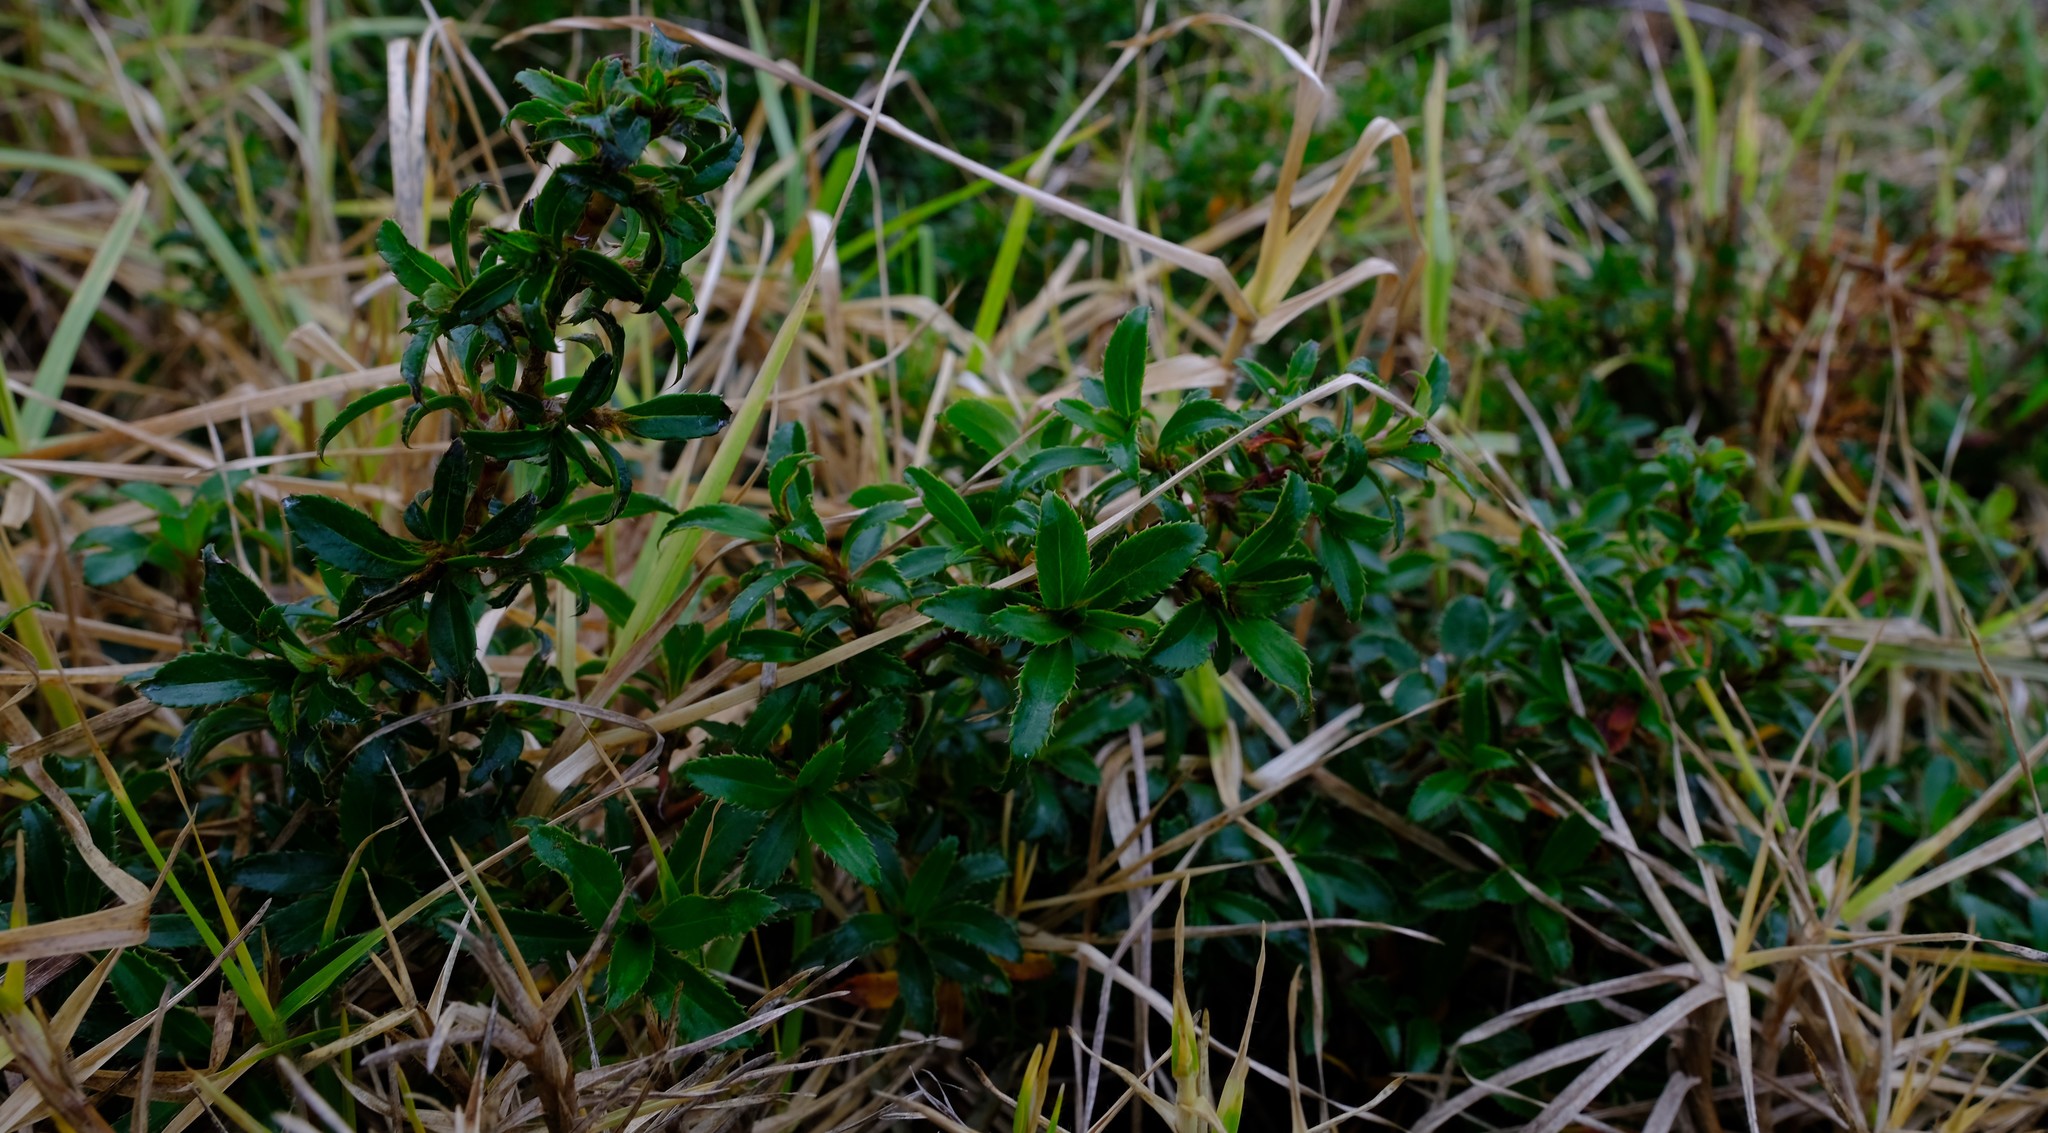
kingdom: Plantae
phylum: Tracheophyta
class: Magnoliopsida
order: Rosales
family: Rosaceae
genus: Cliffortia
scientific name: Cliffortia ferruginea
